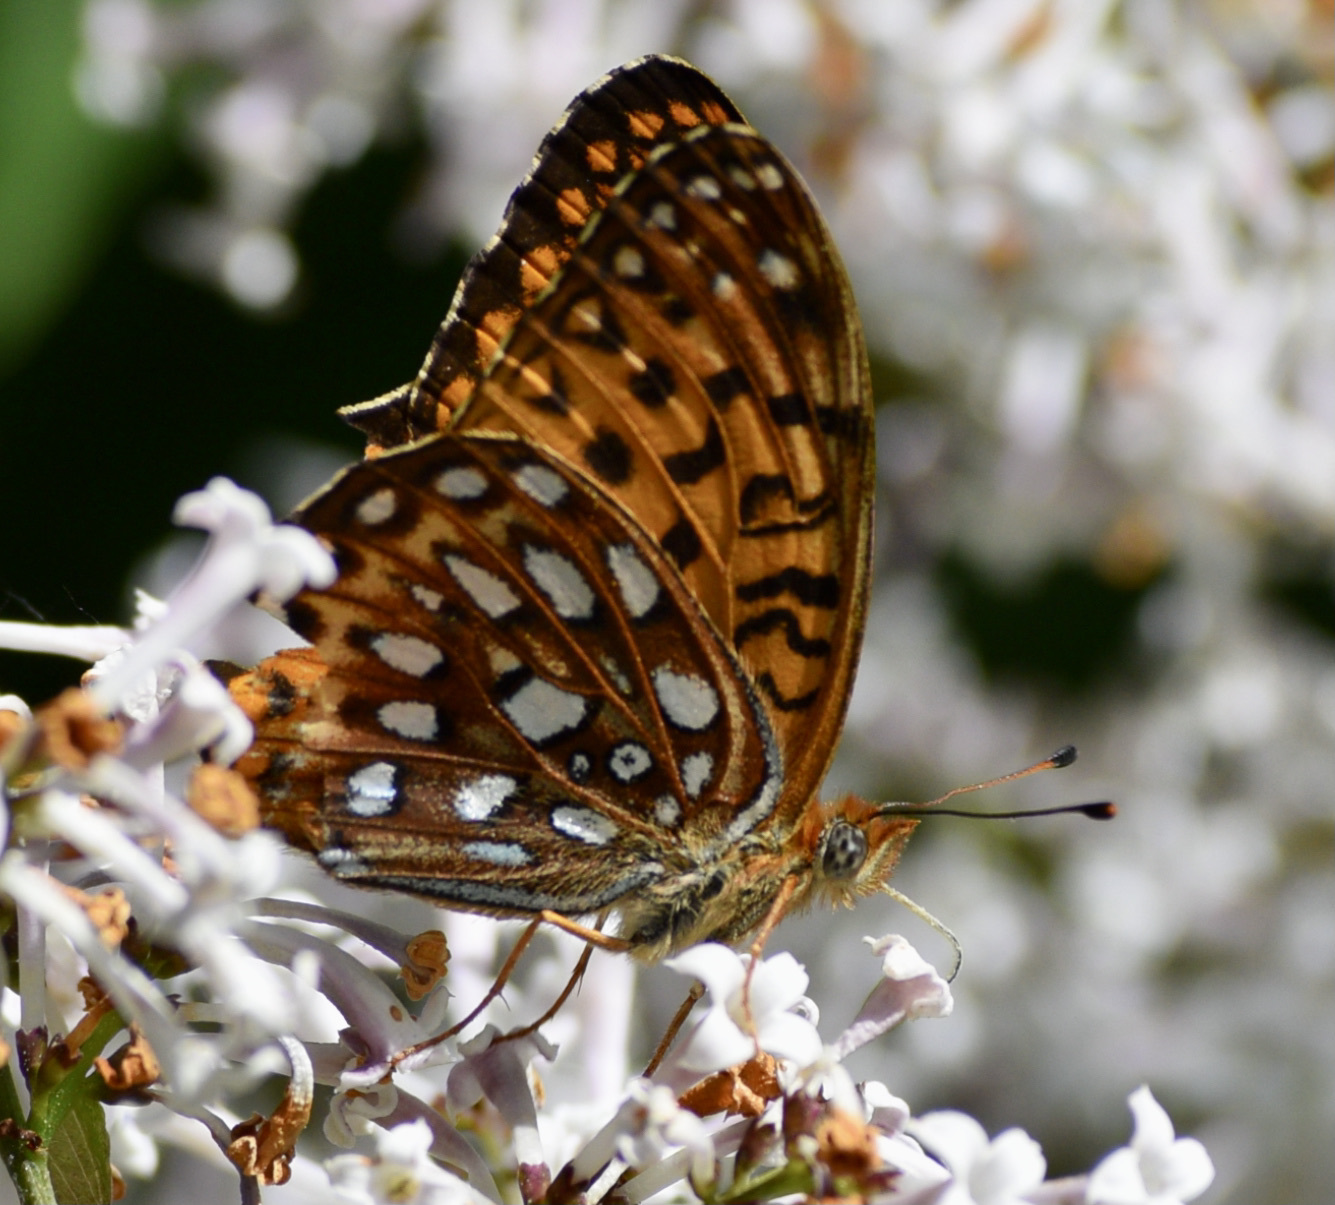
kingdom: Animalia
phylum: Arthropoda
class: Insecta
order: Lepidoptera
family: Nymphalidae
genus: Speyeria
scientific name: Speyeria atlantis
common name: Atlantis fritillary
